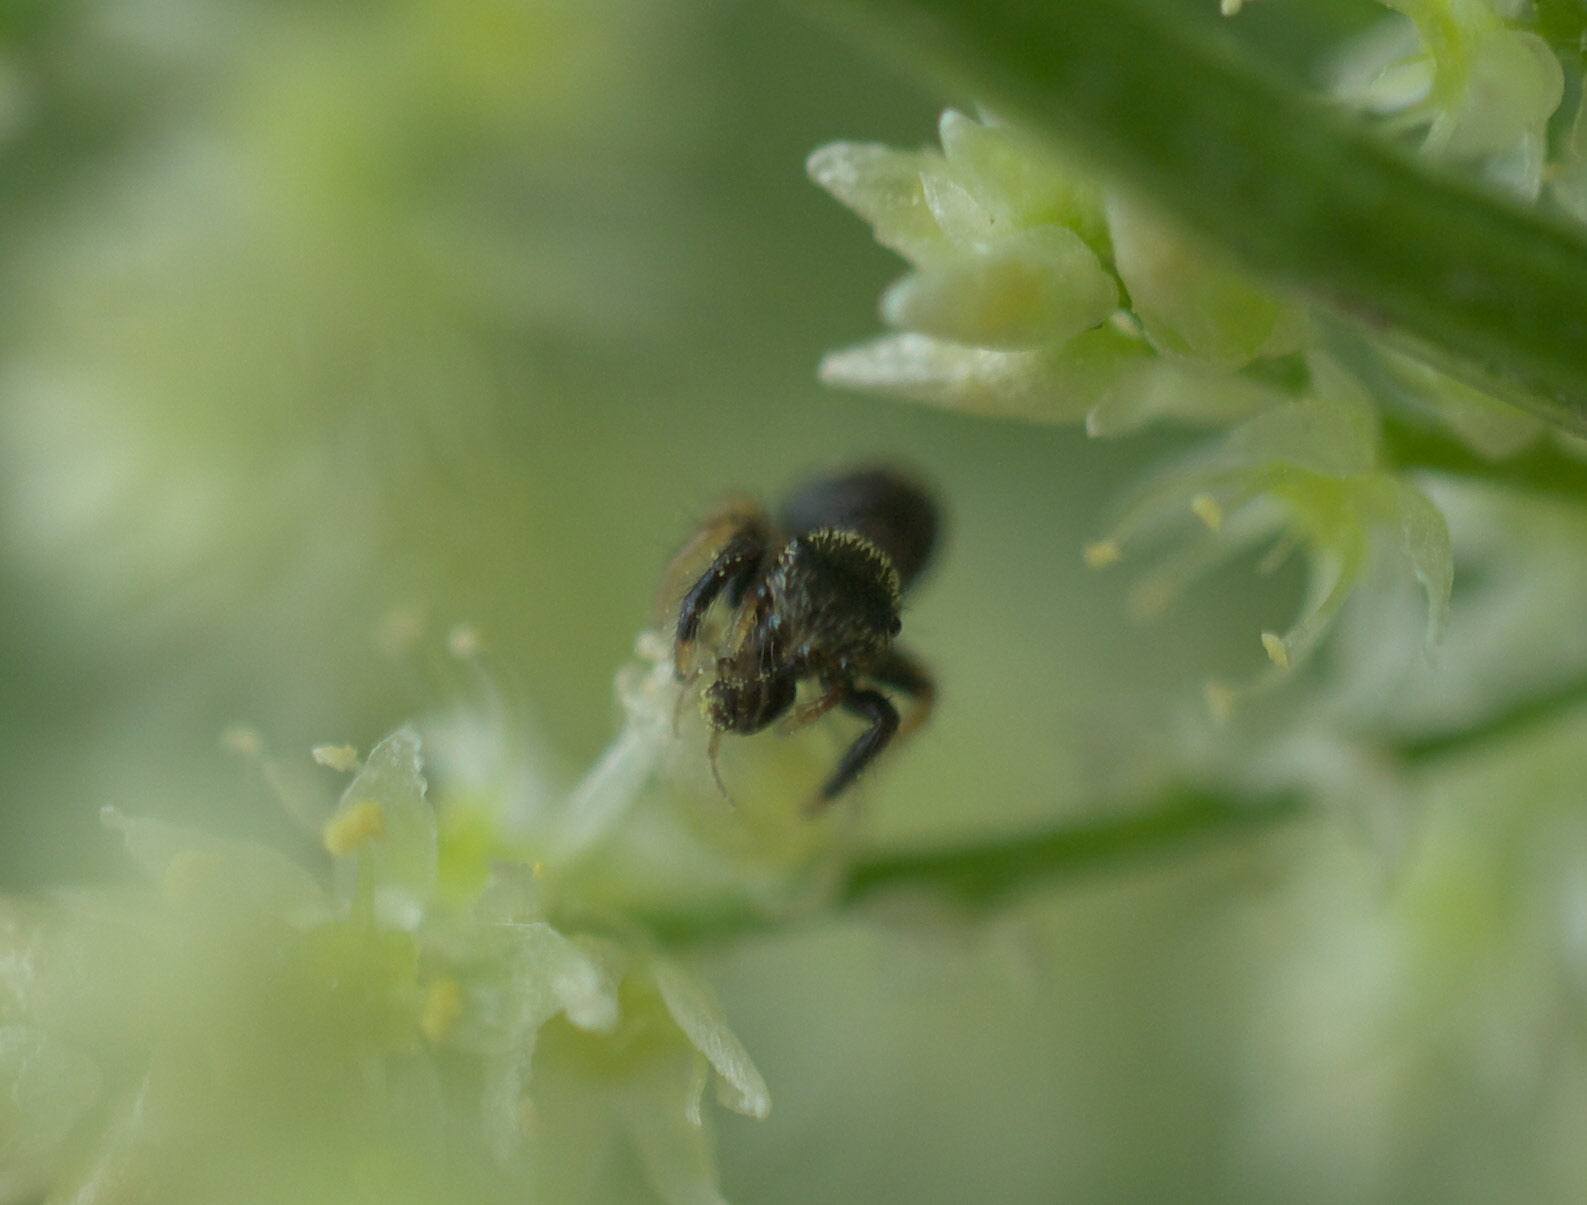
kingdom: Animalia
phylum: Arthropoda
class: Arachnida
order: Araneae
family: Salticidae
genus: Paraphidippus
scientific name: Paraphidippus aurantius
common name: Jumping spiders
